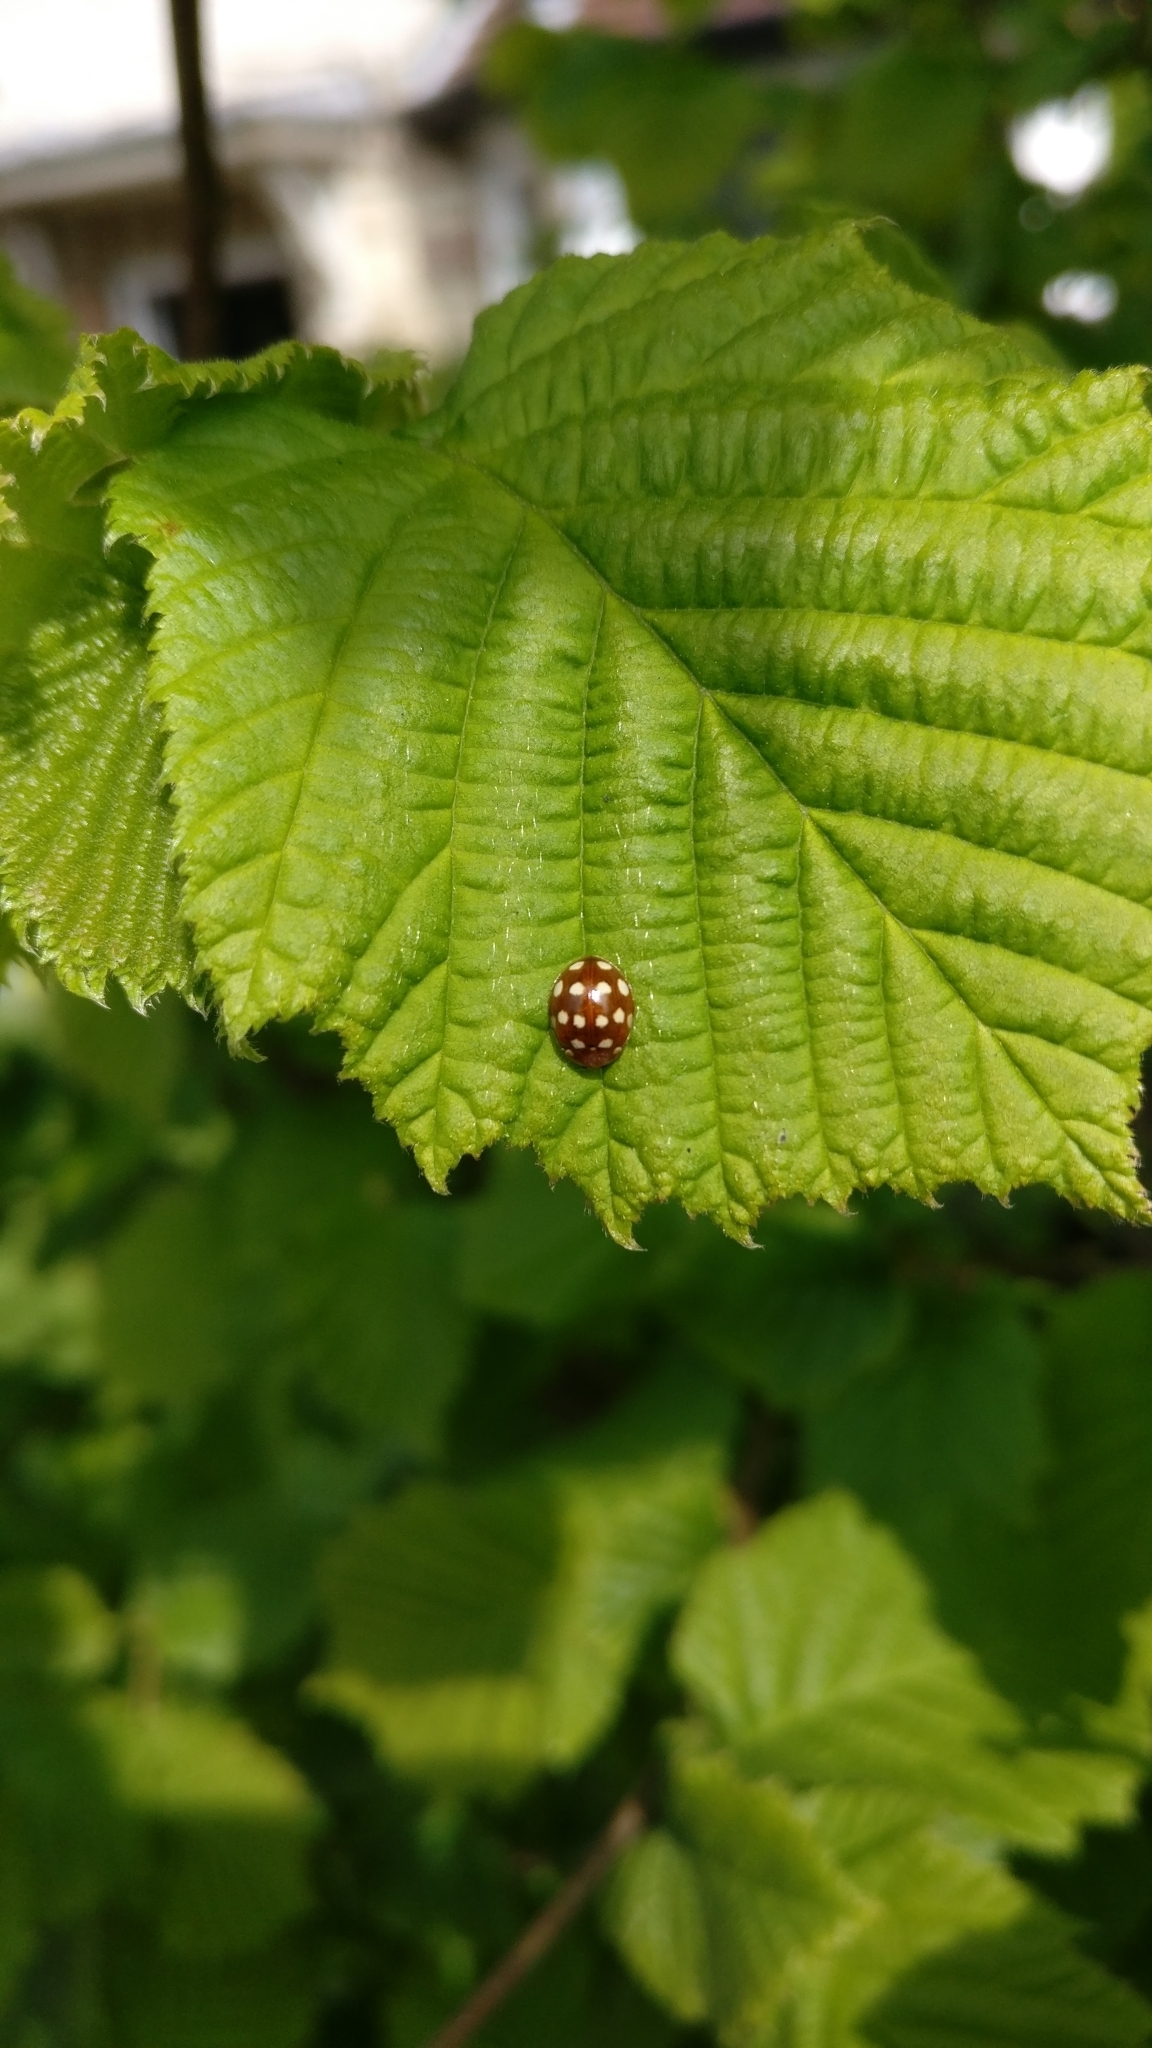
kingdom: Animalia
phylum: Arthropoda
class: Insecta
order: Coleoptera
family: Coccinellidae
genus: Calvia
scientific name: Calvia quatuordecimguttata
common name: Cream-spot ladybird
